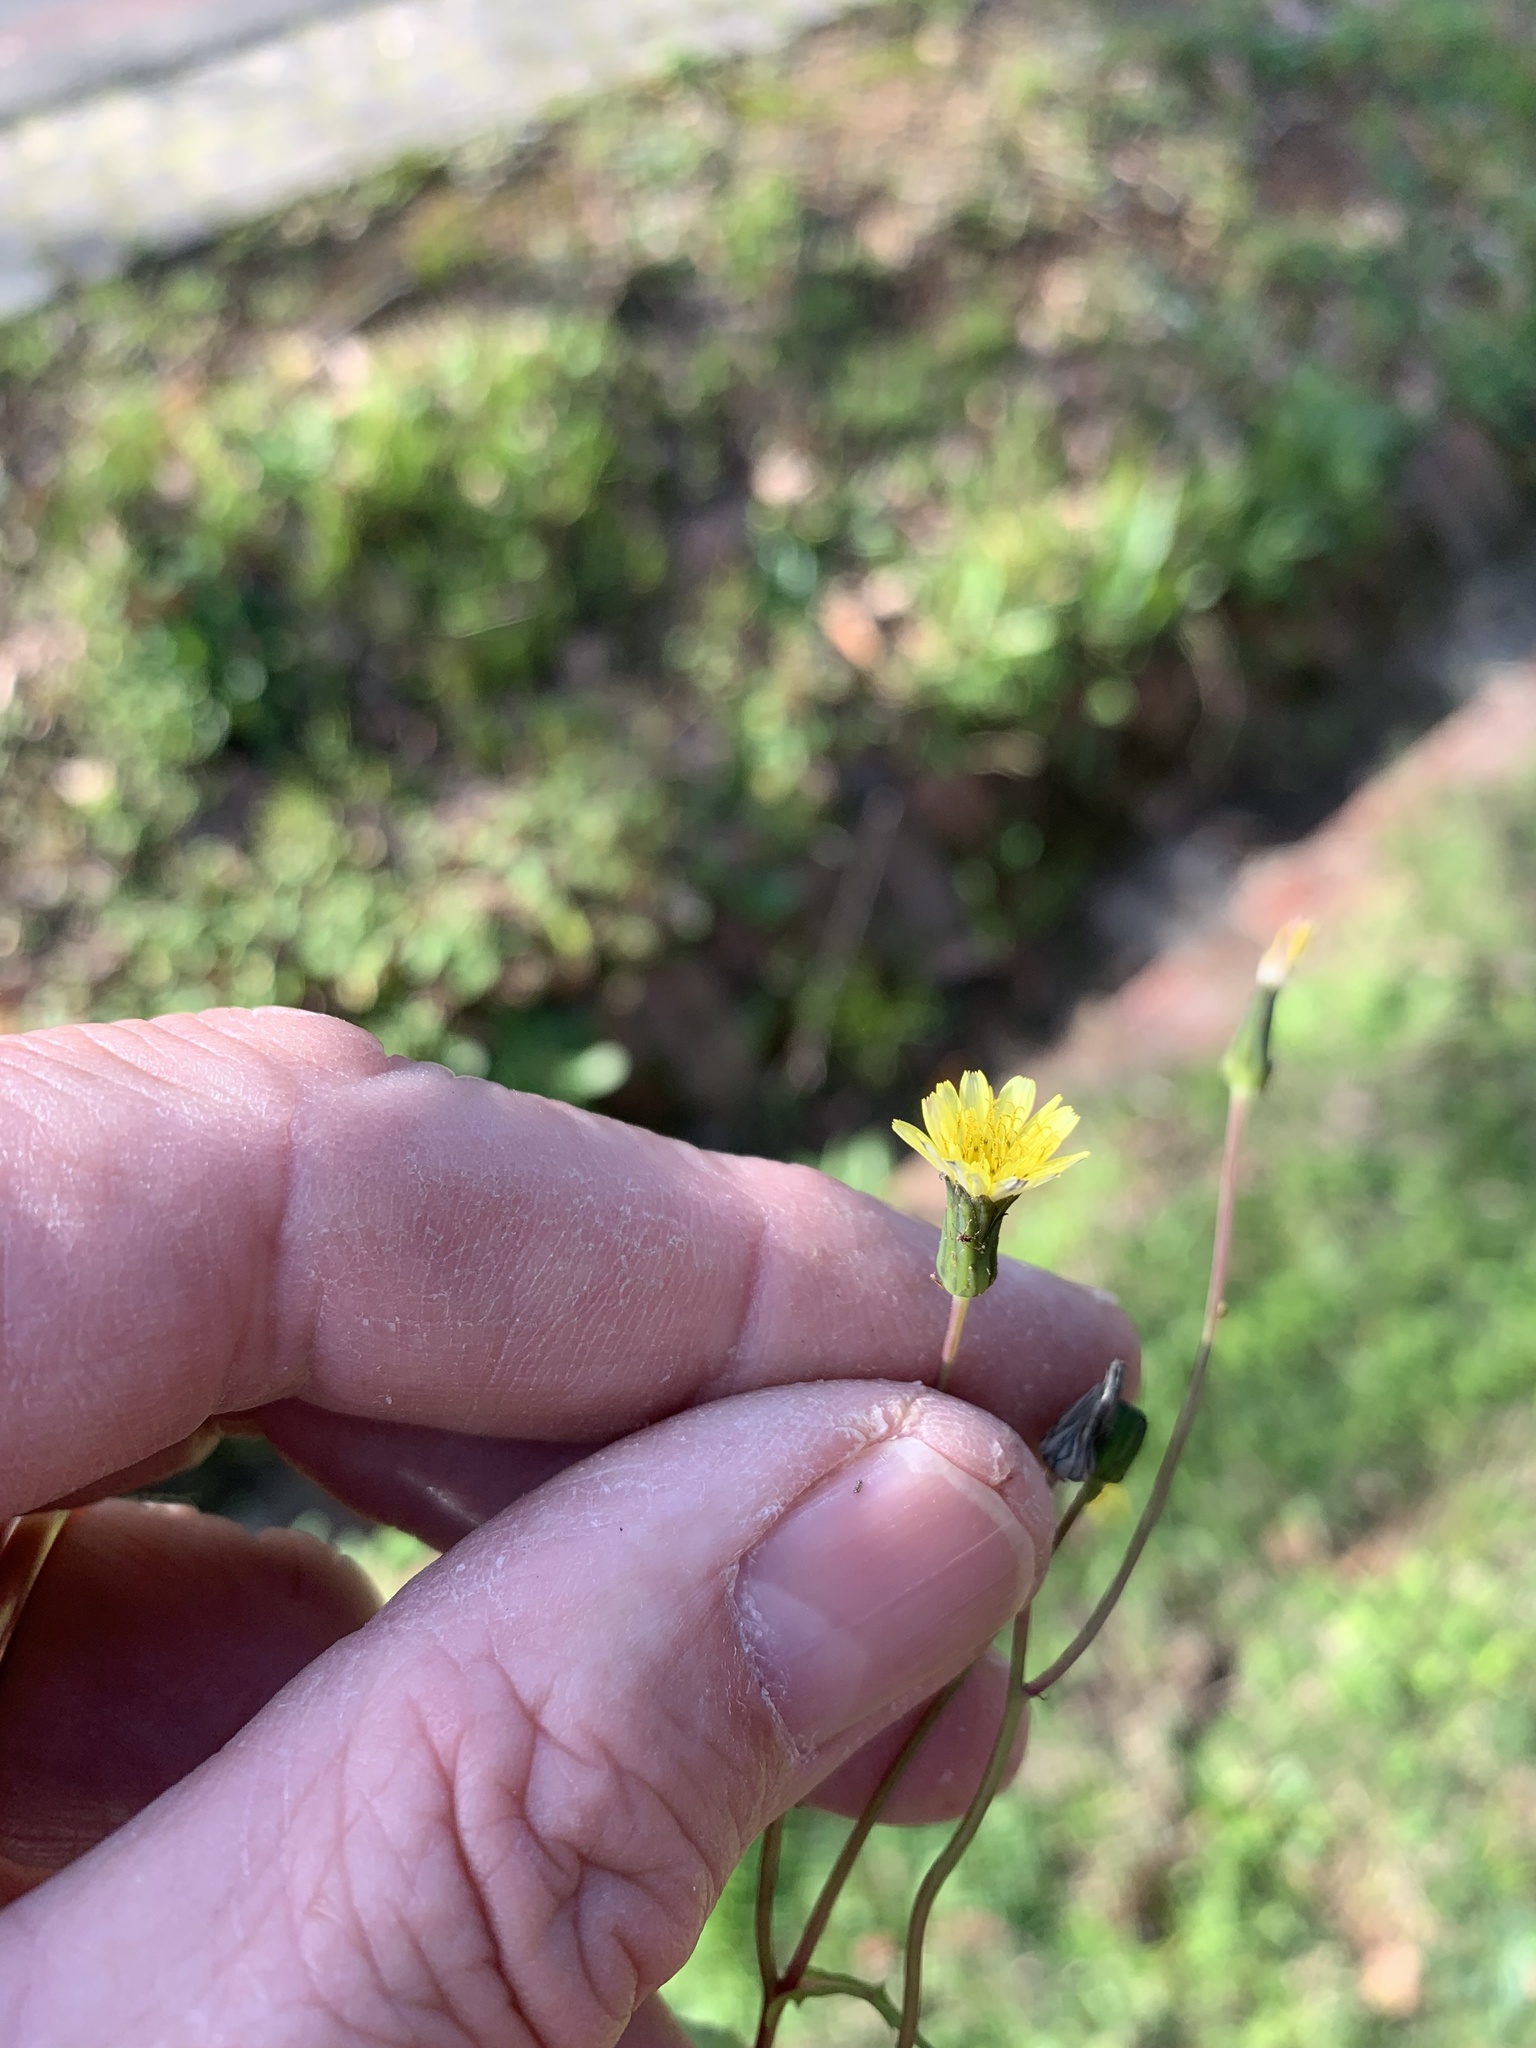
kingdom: Plantae
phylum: Tracheophyta
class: Magnoliopsida
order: Asterales
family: Asteraceae
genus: Sonchus
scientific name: Sonchus oleraceus
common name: Common sowthistle
